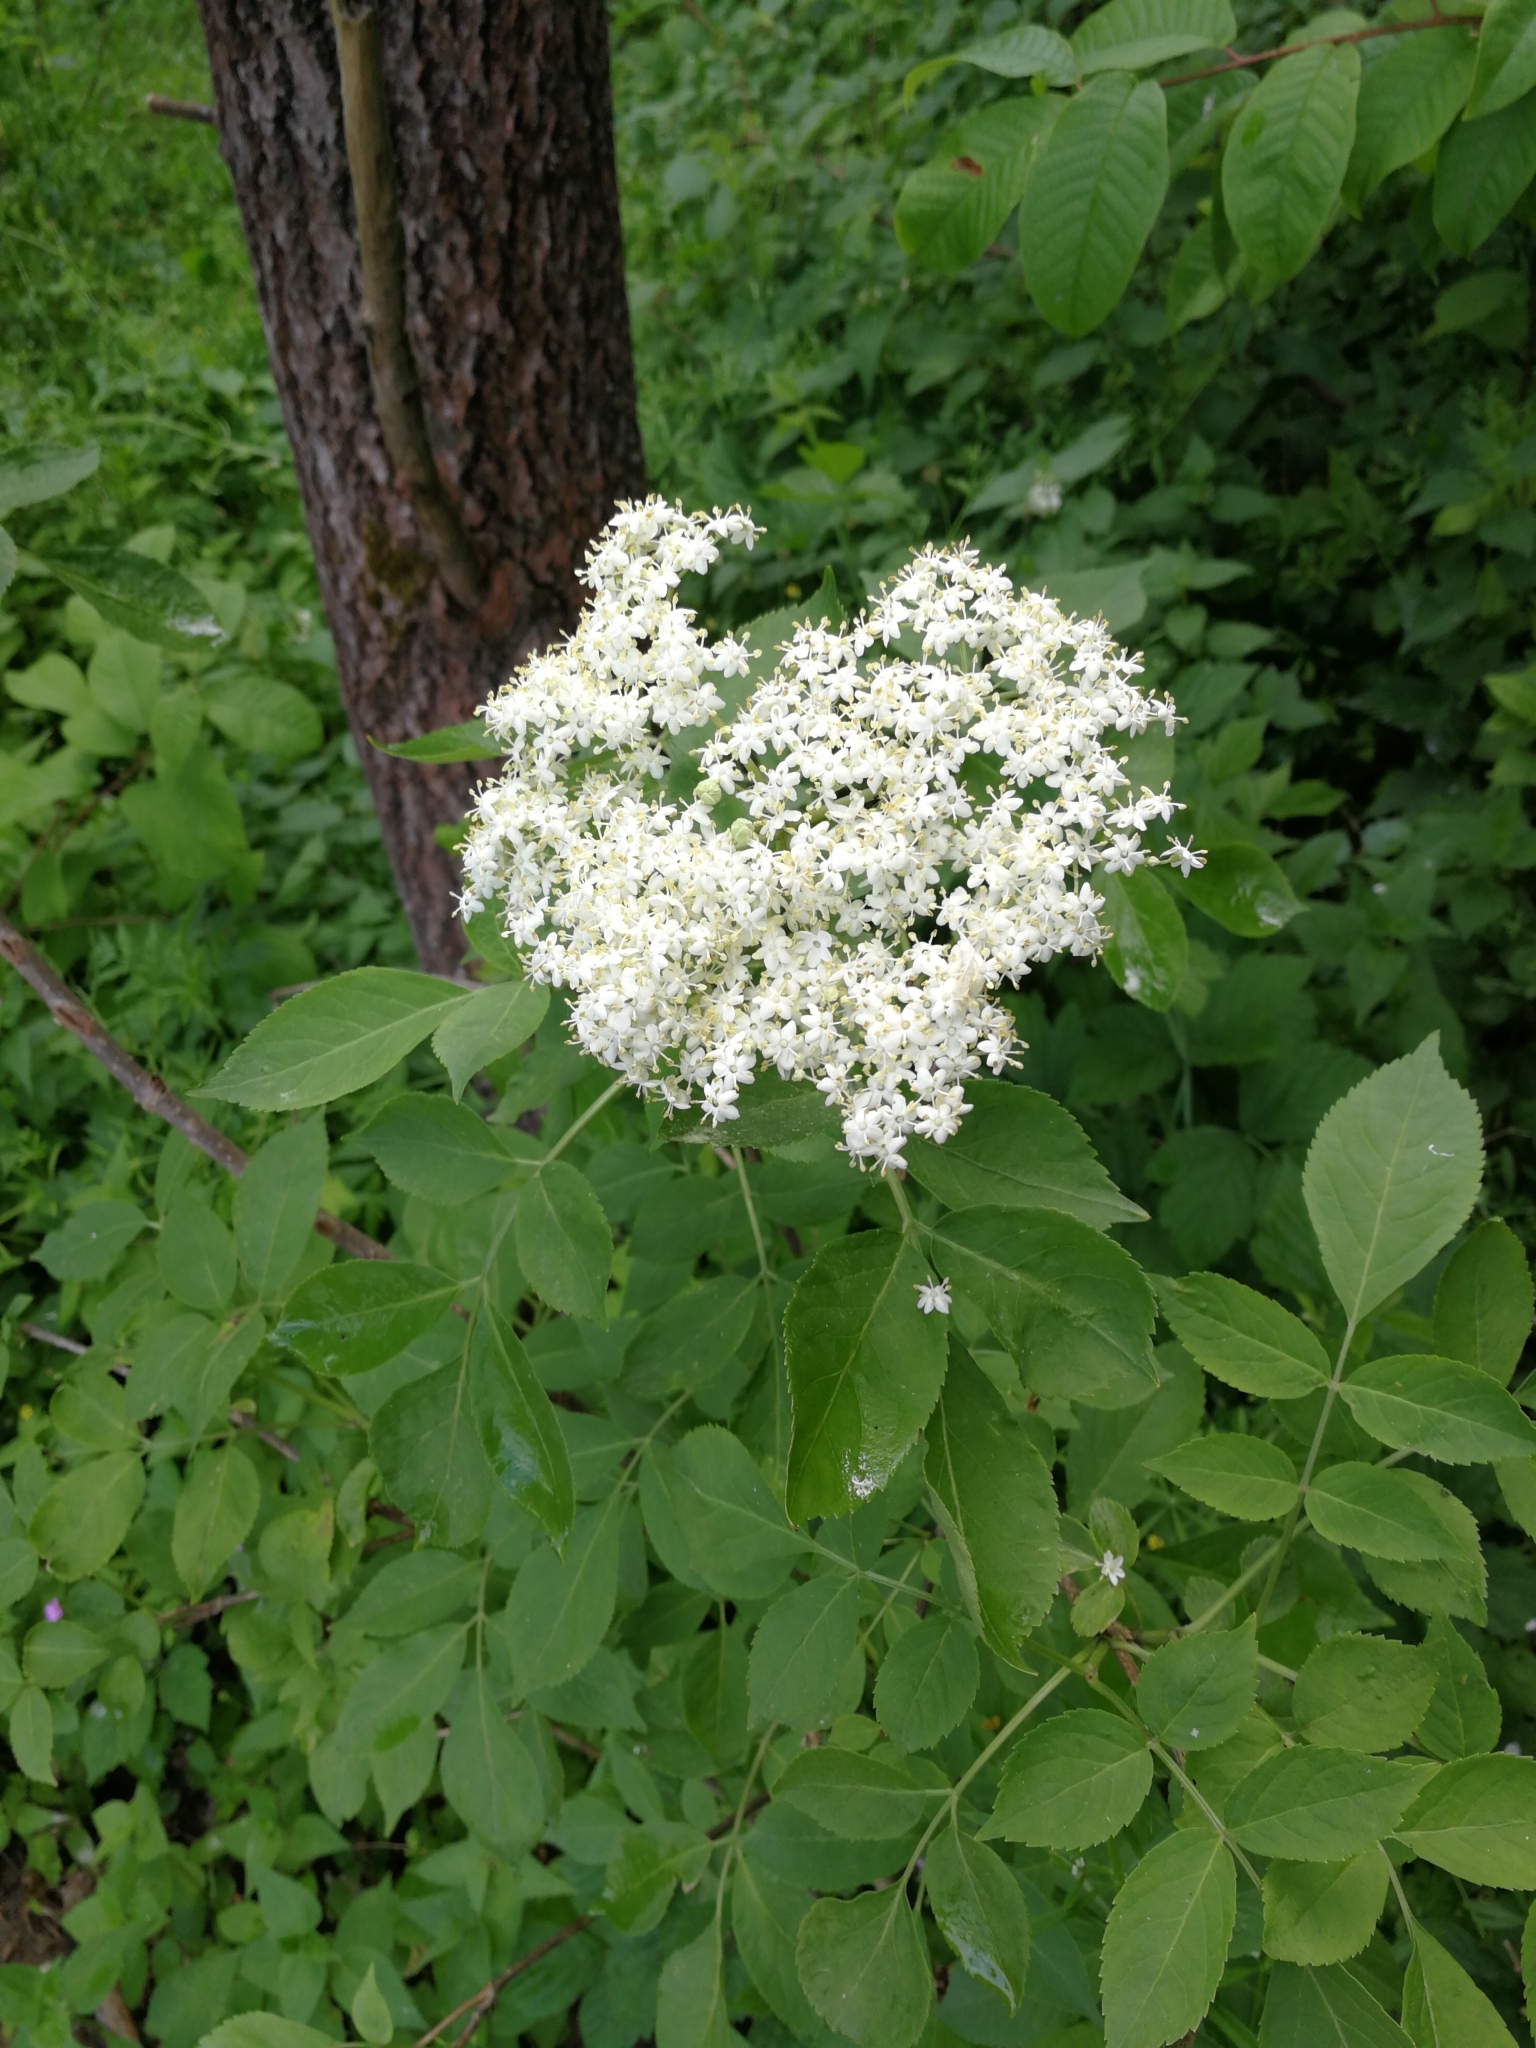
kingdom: Plantae
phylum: Tracheophyta
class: Magnoliopsida
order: Dipsacales
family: Viburnaceae
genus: Sambucus
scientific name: Sambucus nigra
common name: Elder
